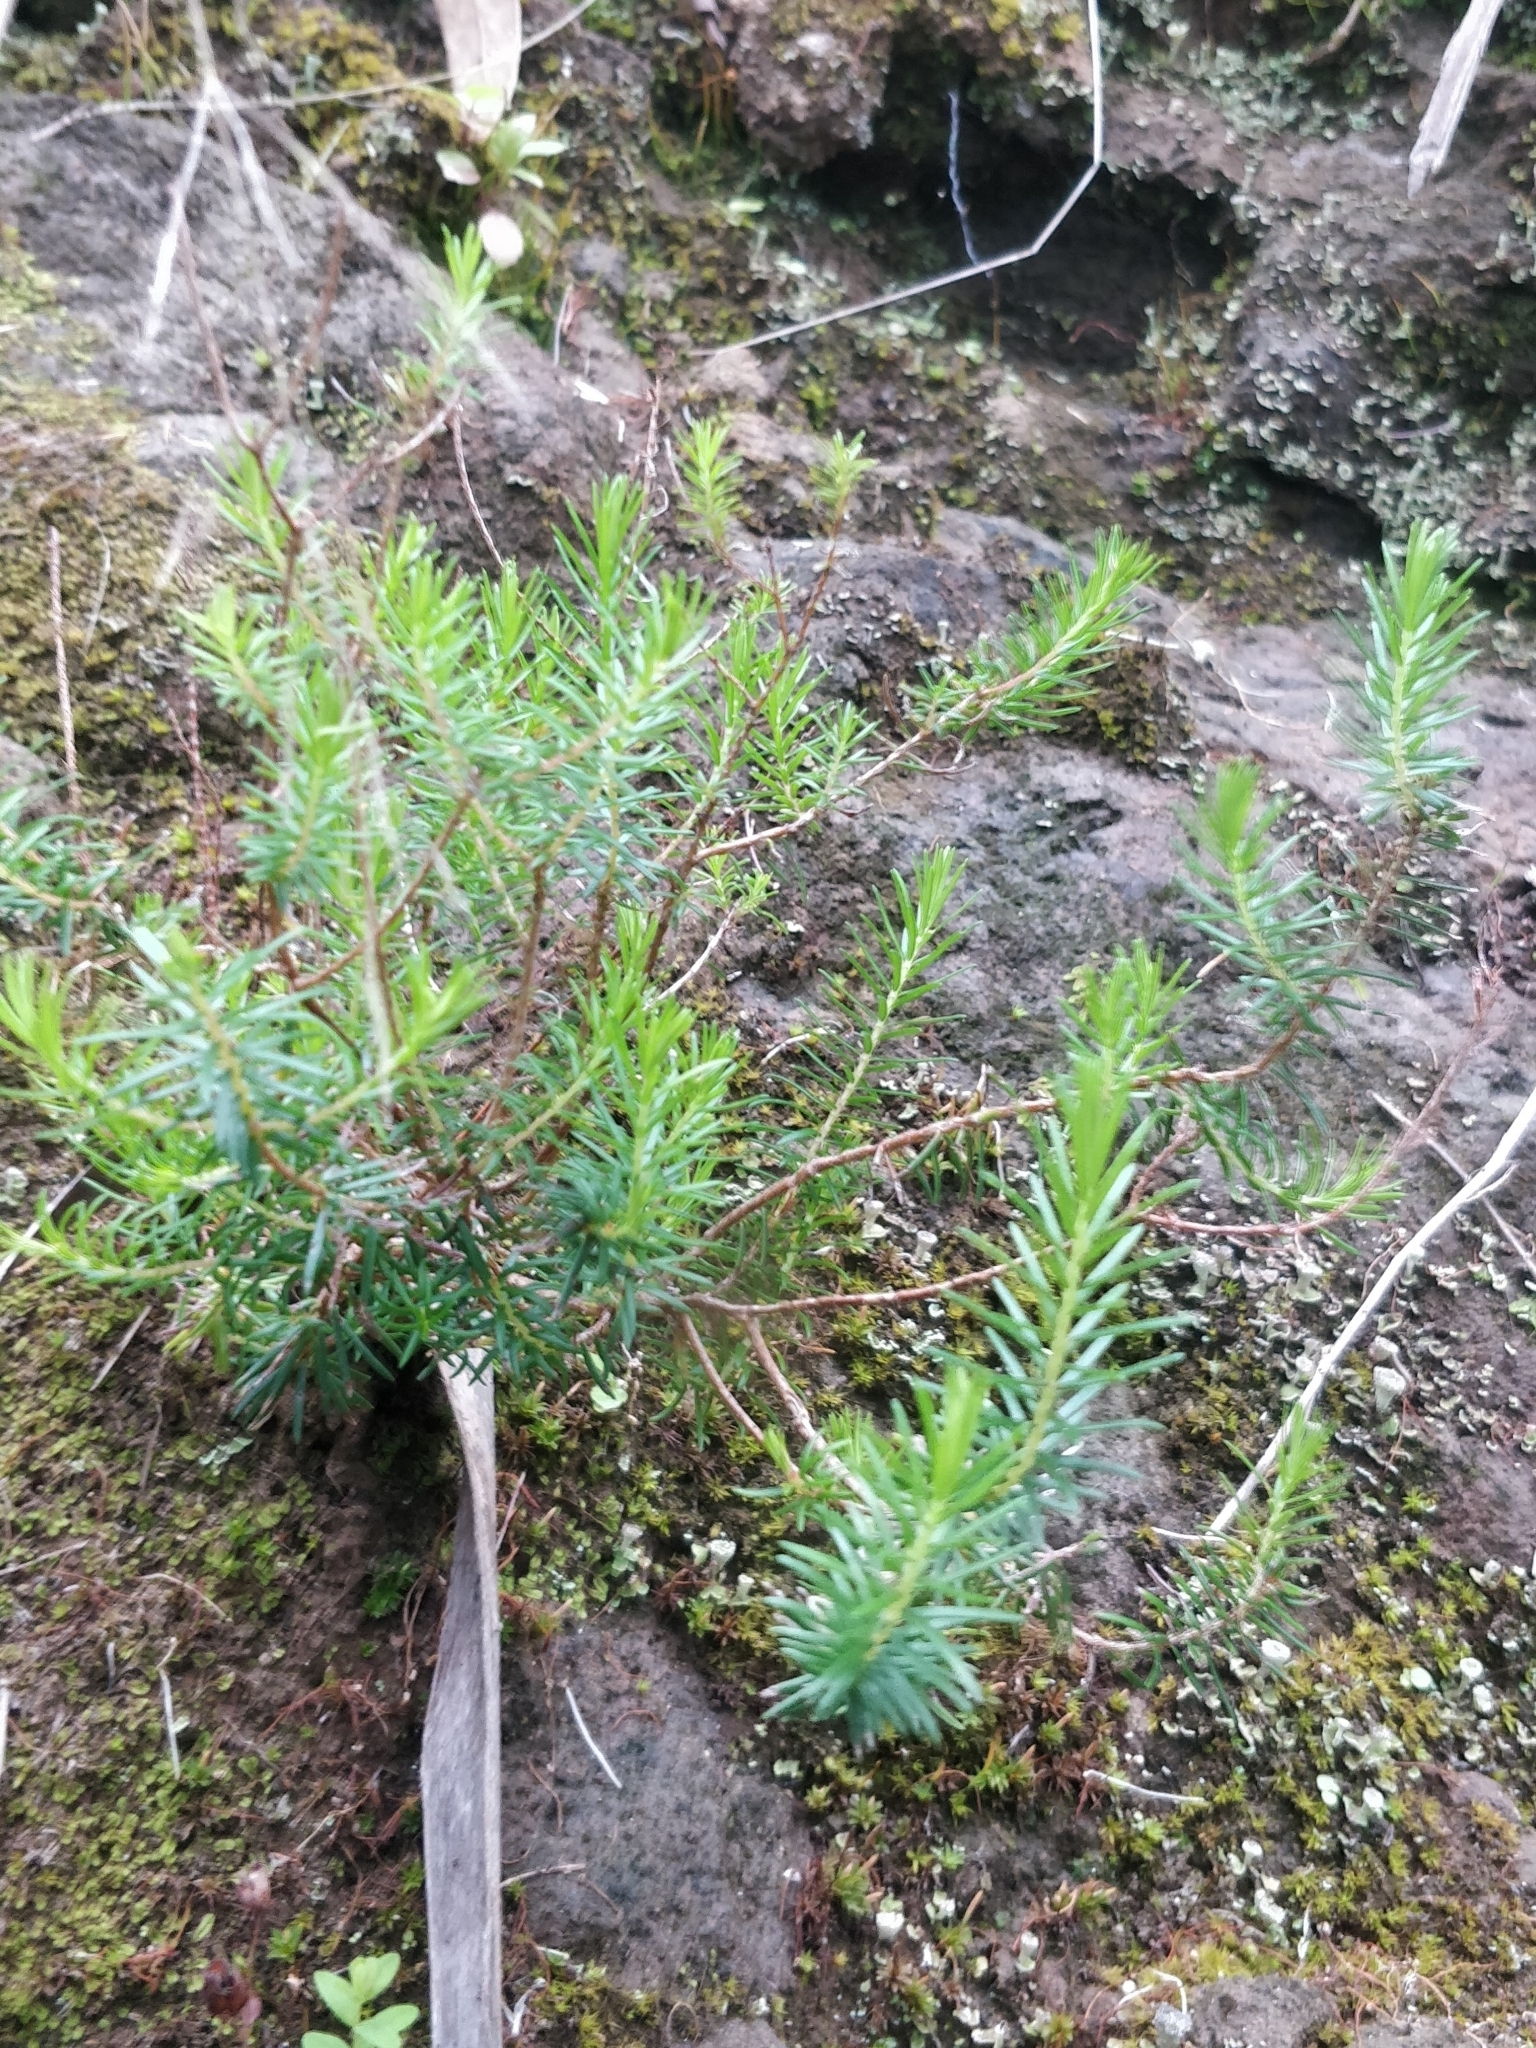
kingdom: Plantae
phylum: Tracheophyta
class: Magnoliopsida
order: Ericales
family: Ericaceae
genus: Erica
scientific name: Erica platycodon
